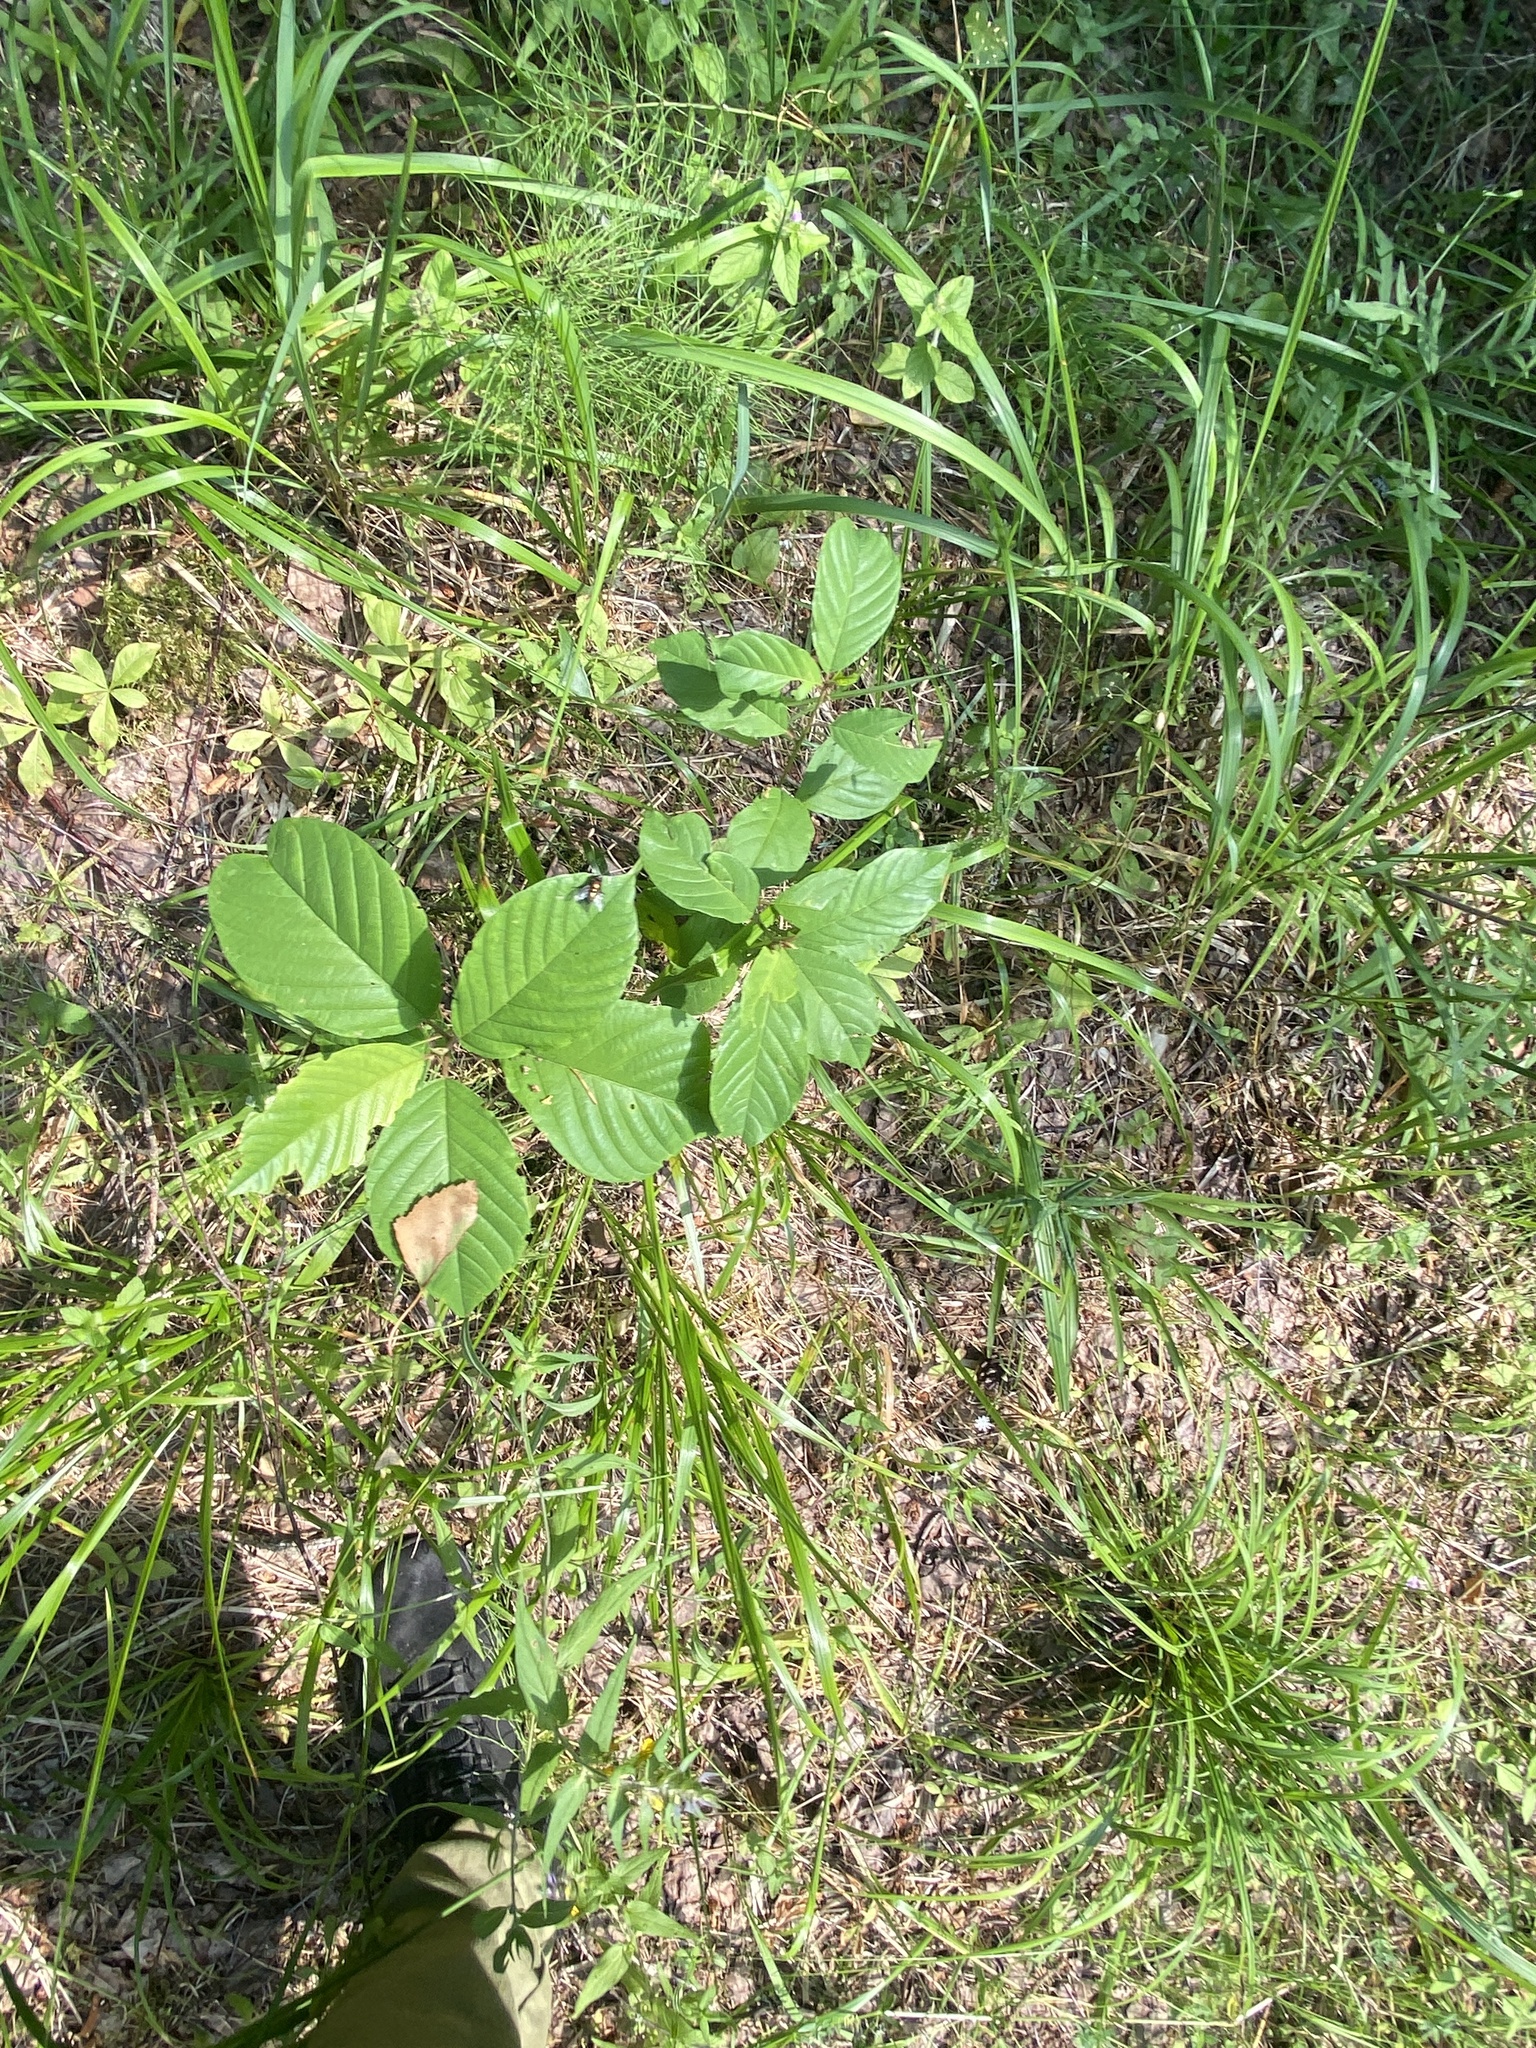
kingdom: Plantae
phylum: Tracheophyta
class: Magnoliopsida
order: Rosales
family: Rhamnaceae
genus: Frangula
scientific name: Frangula alnus
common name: Alder buckthorn
